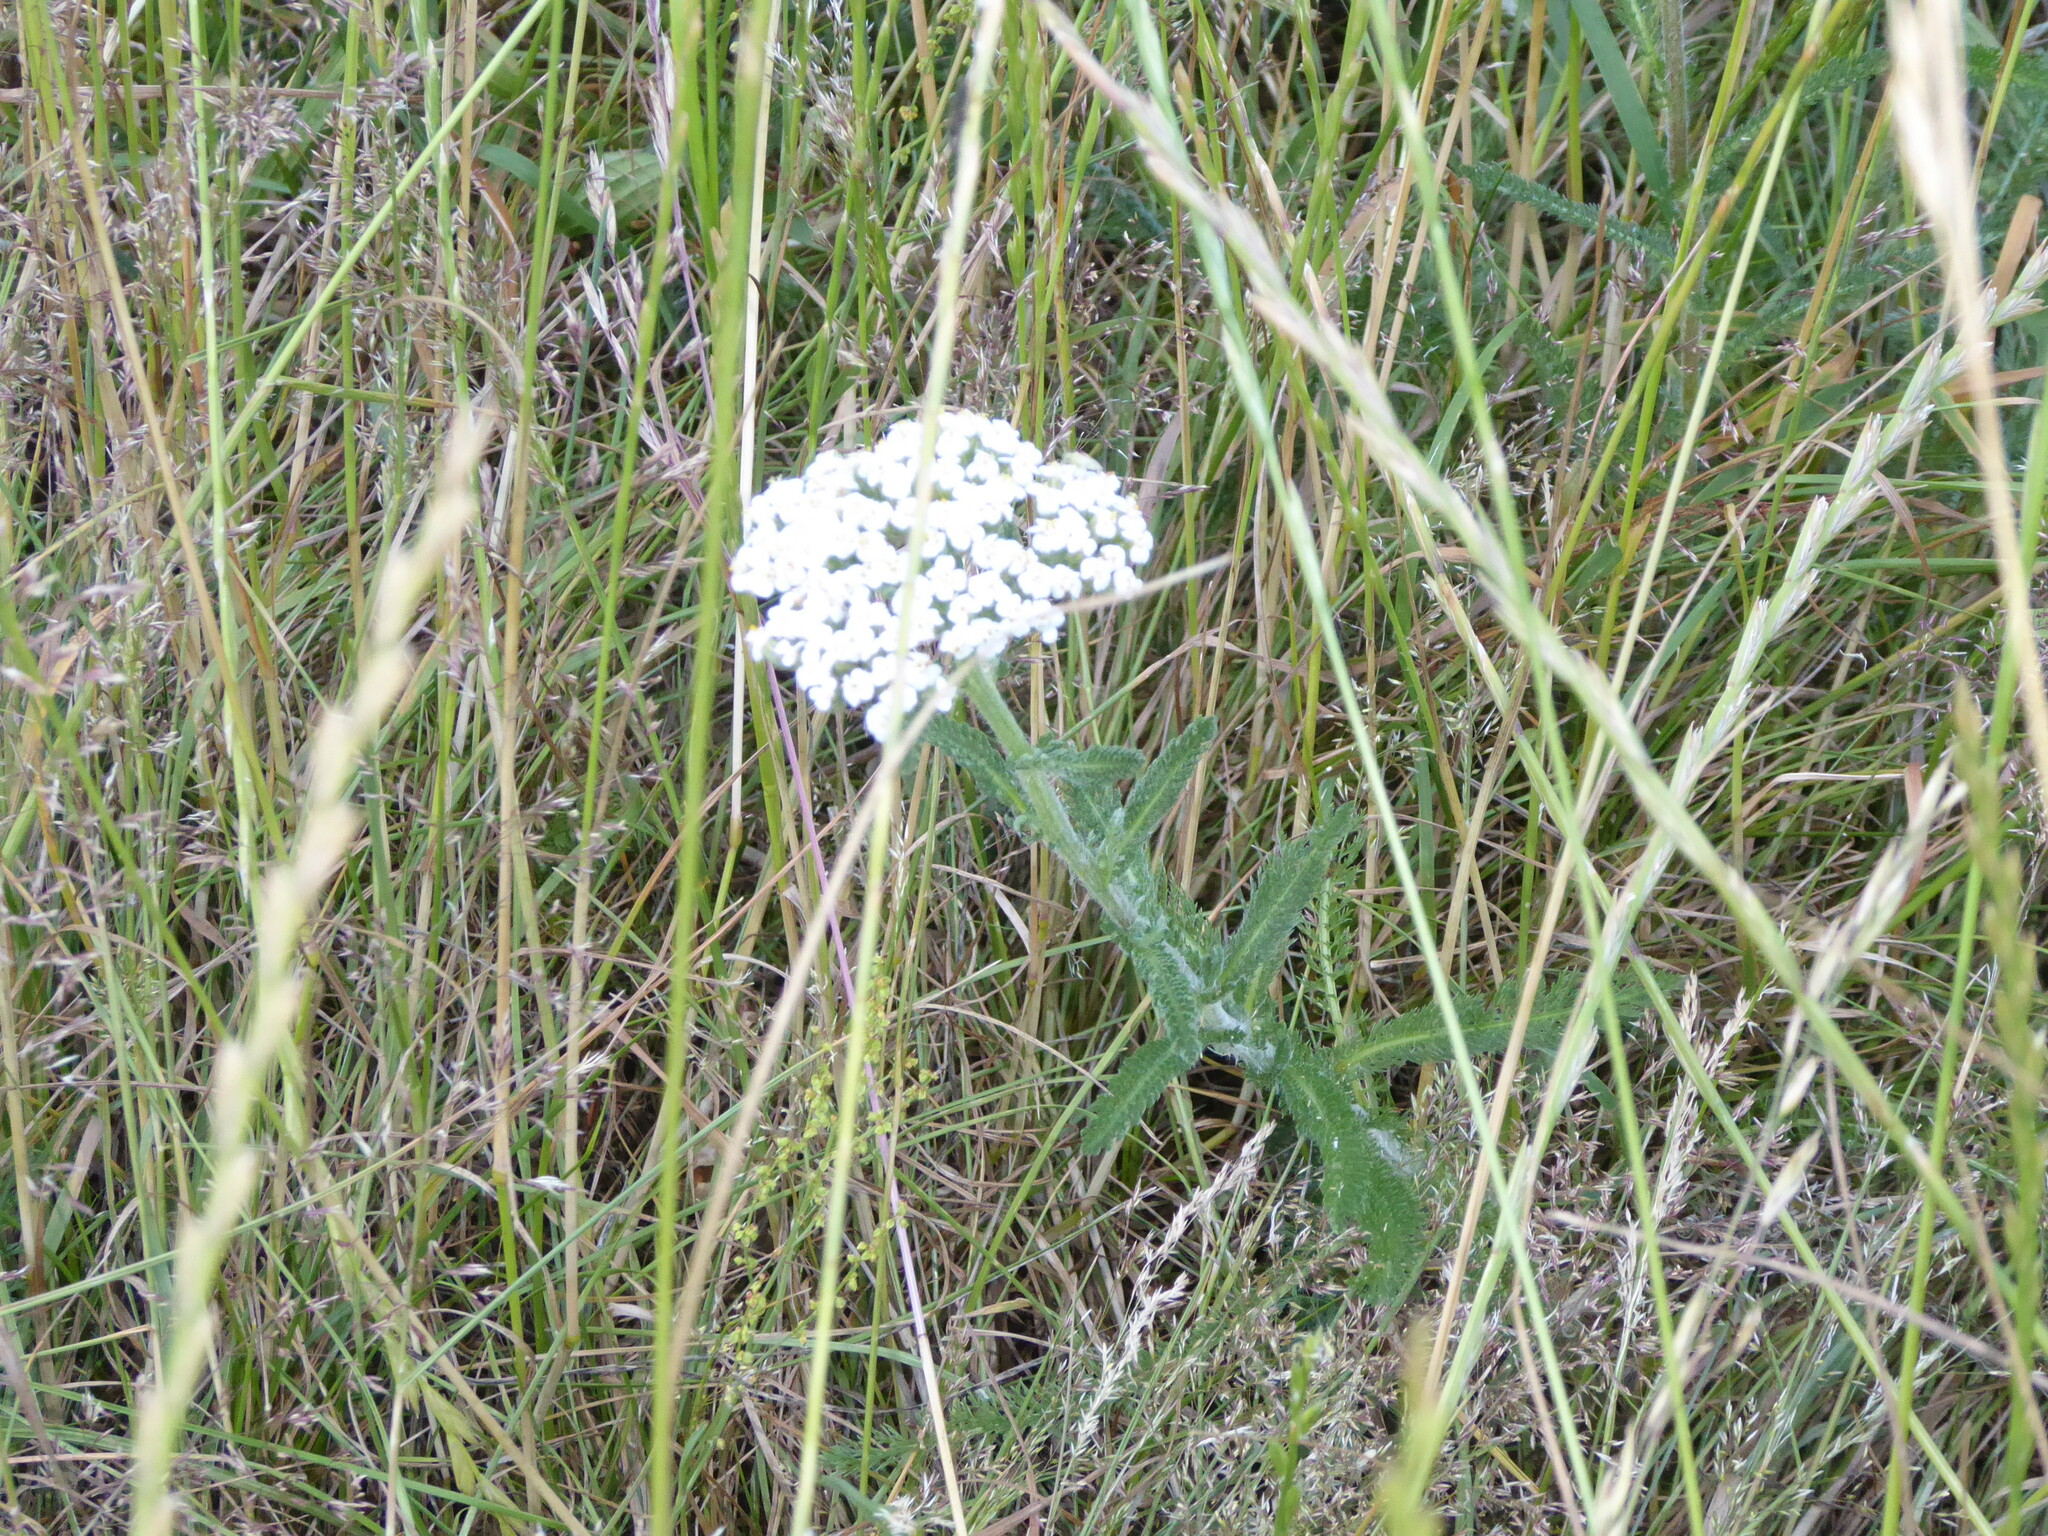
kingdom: Plantae
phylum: Tracheophyta
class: Magnoliopsida
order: Asterales
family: Asteraceae
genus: Achillea
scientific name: Achillea millefolium
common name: Yarrow
